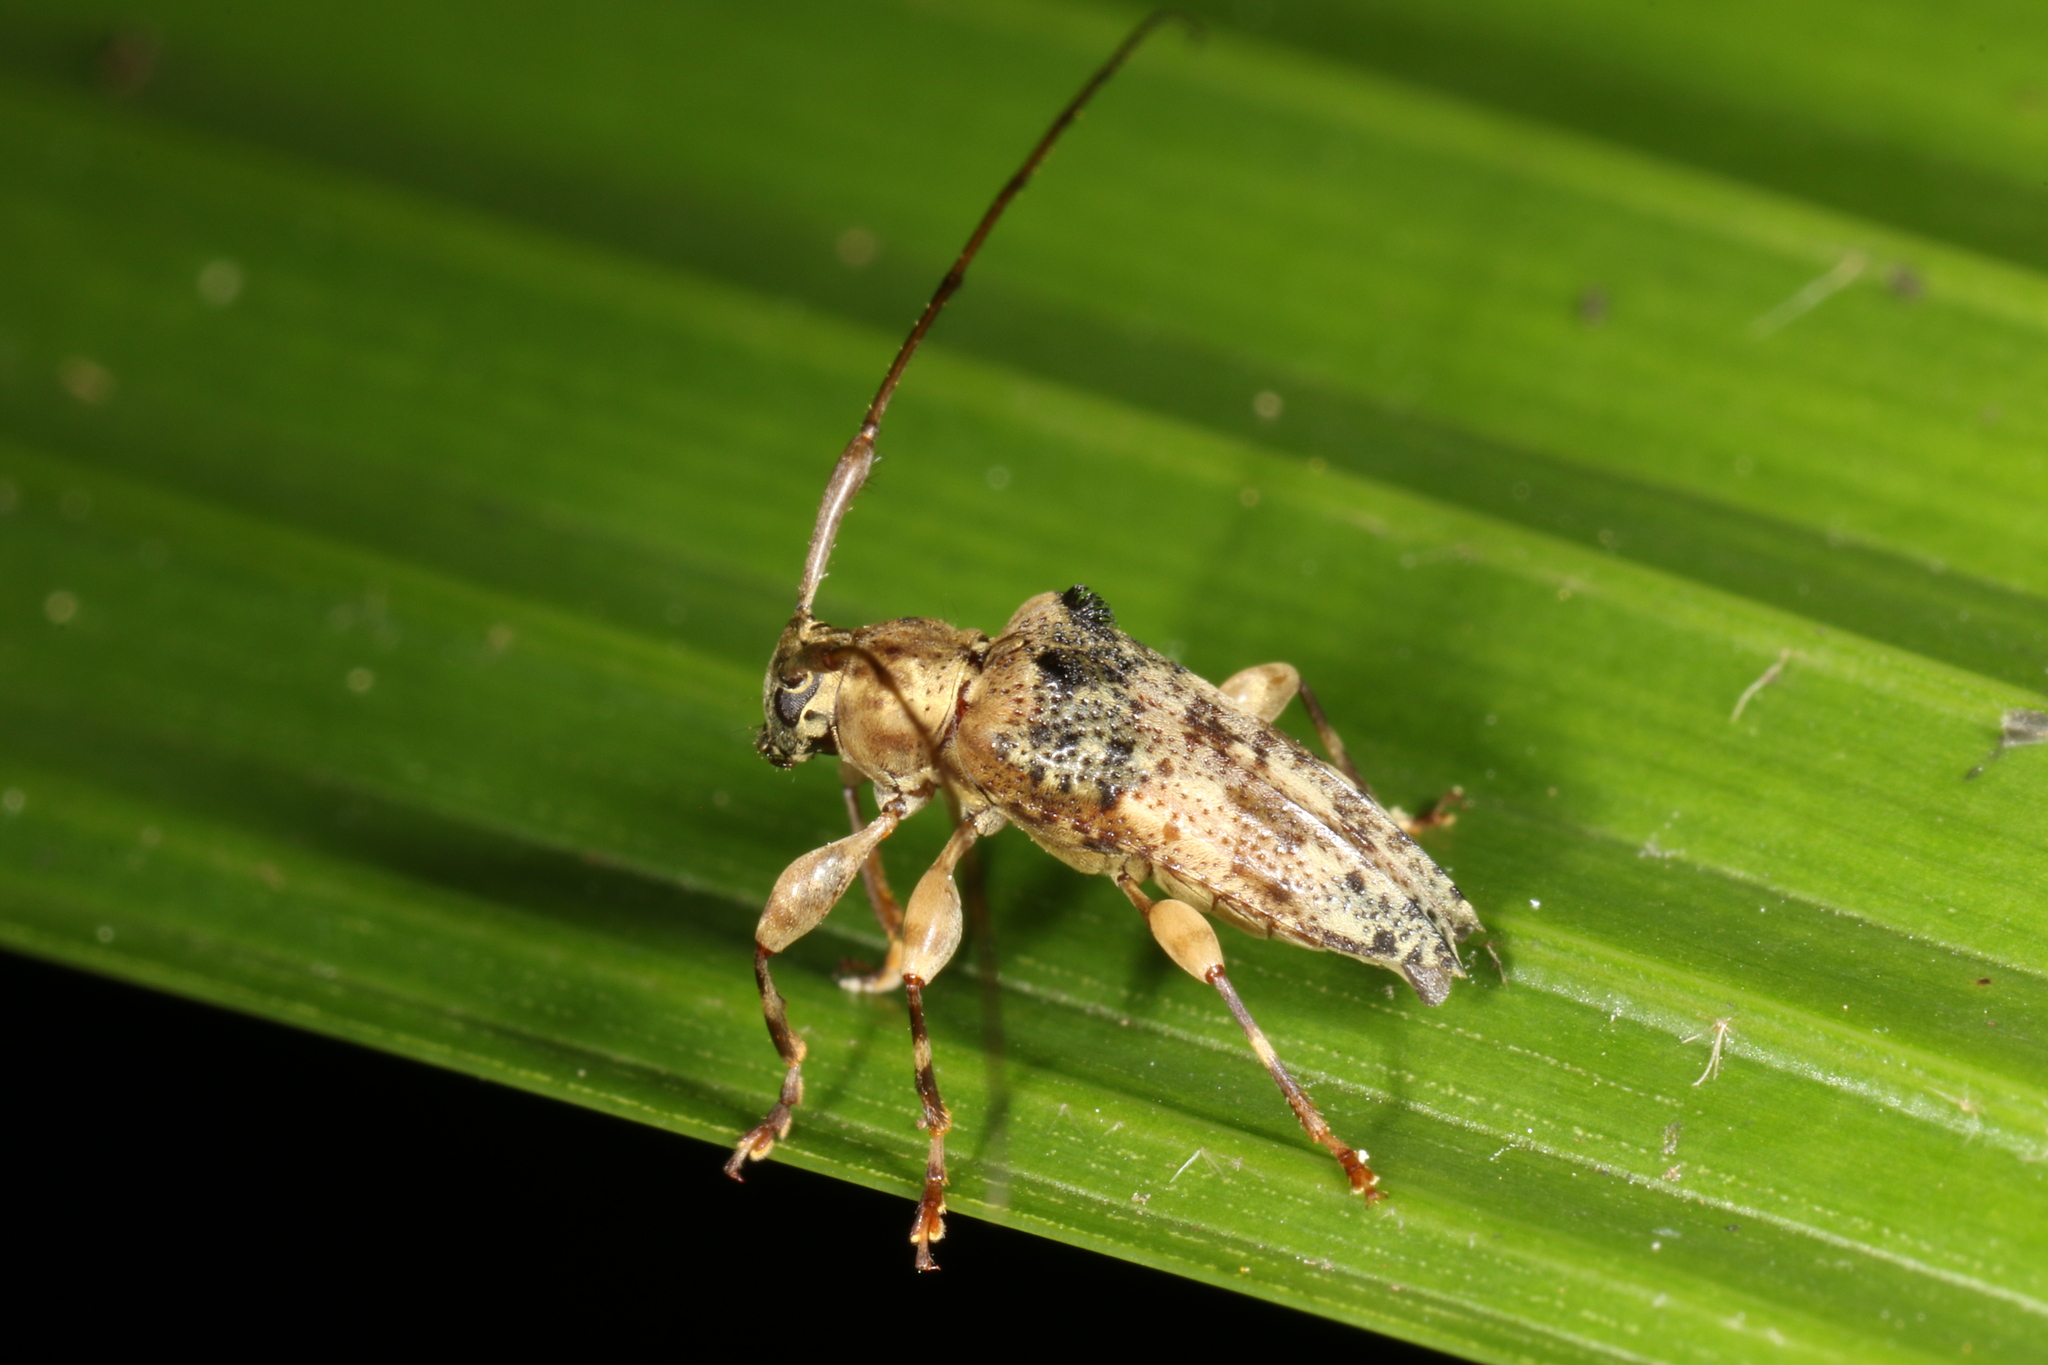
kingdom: Animalia
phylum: Arthropoda
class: Insecta
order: Coleoptera
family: Cerambycidae
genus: Nealcidion
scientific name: Nealcidion bispinum
